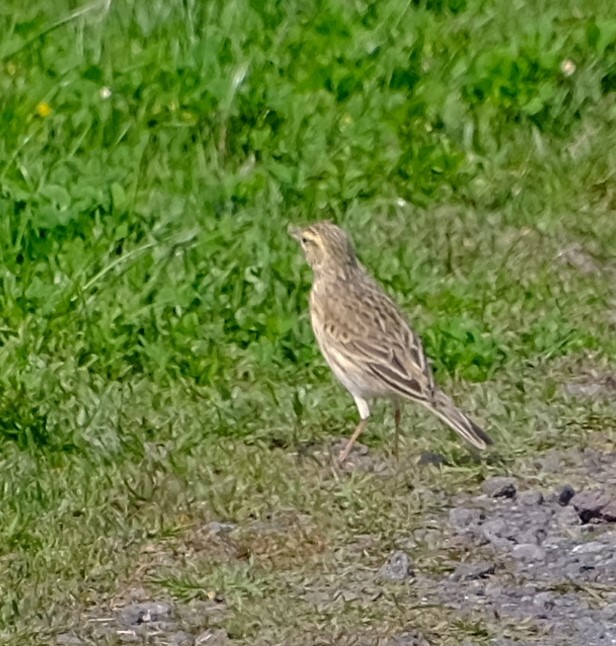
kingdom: Animalia
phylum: Chordata
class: Aves
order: Passeriformes
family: Motacillidae
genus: Anthus
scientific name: Anthus australis
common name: Australian pipit
